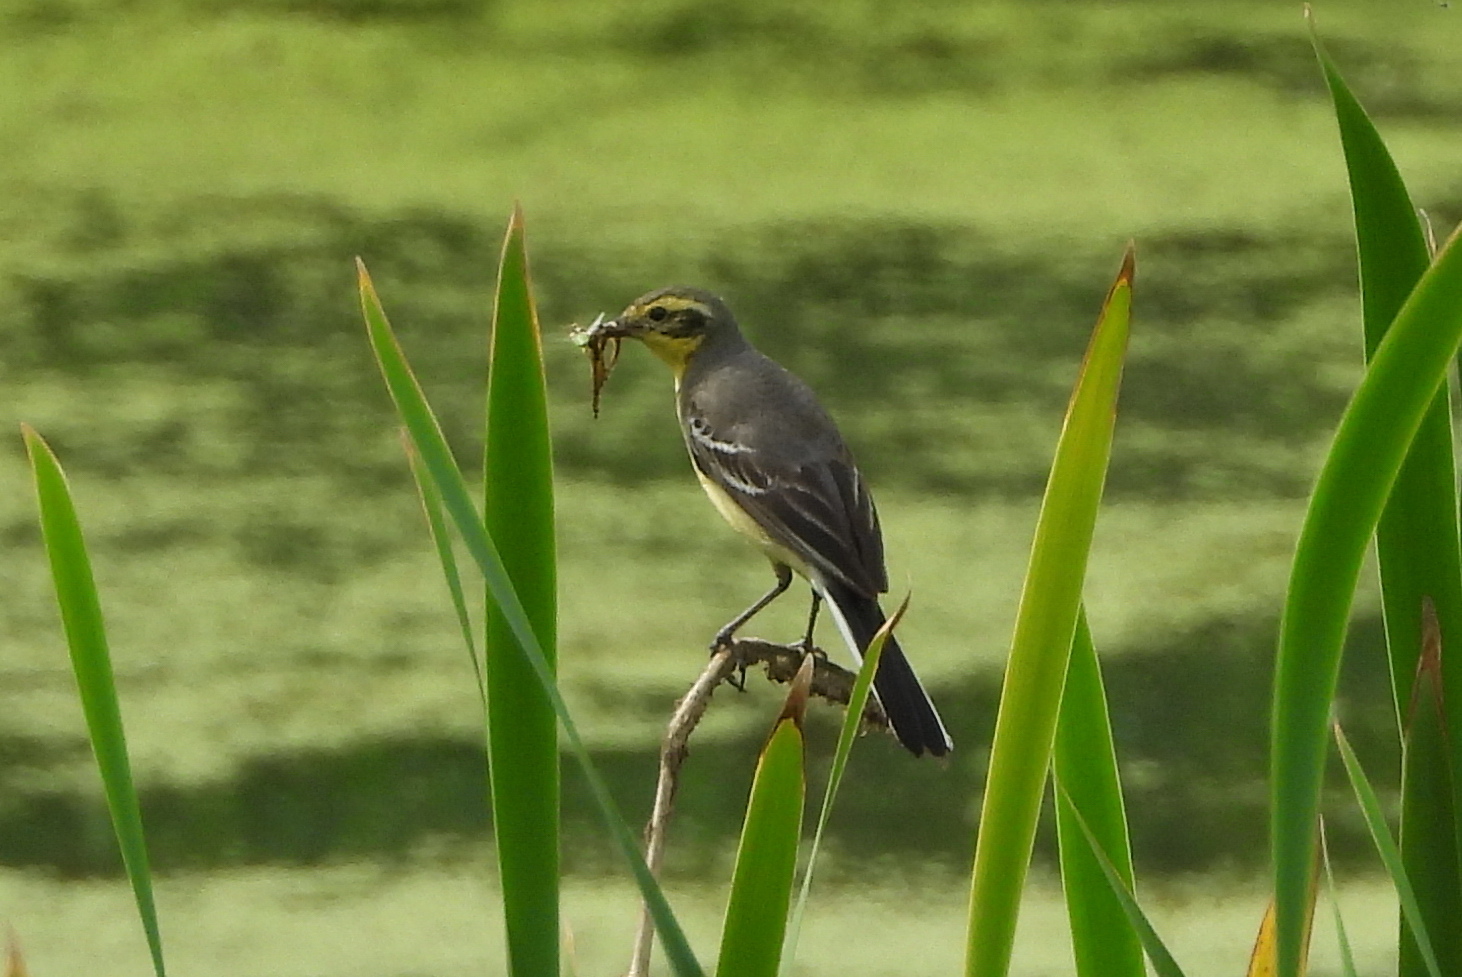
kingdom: Animalia
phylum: Chordata
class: Aves
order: Passeriformes
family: Motacillidae
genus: Motacilla
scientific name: Motacilla citreola
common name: Citrine wagtail
